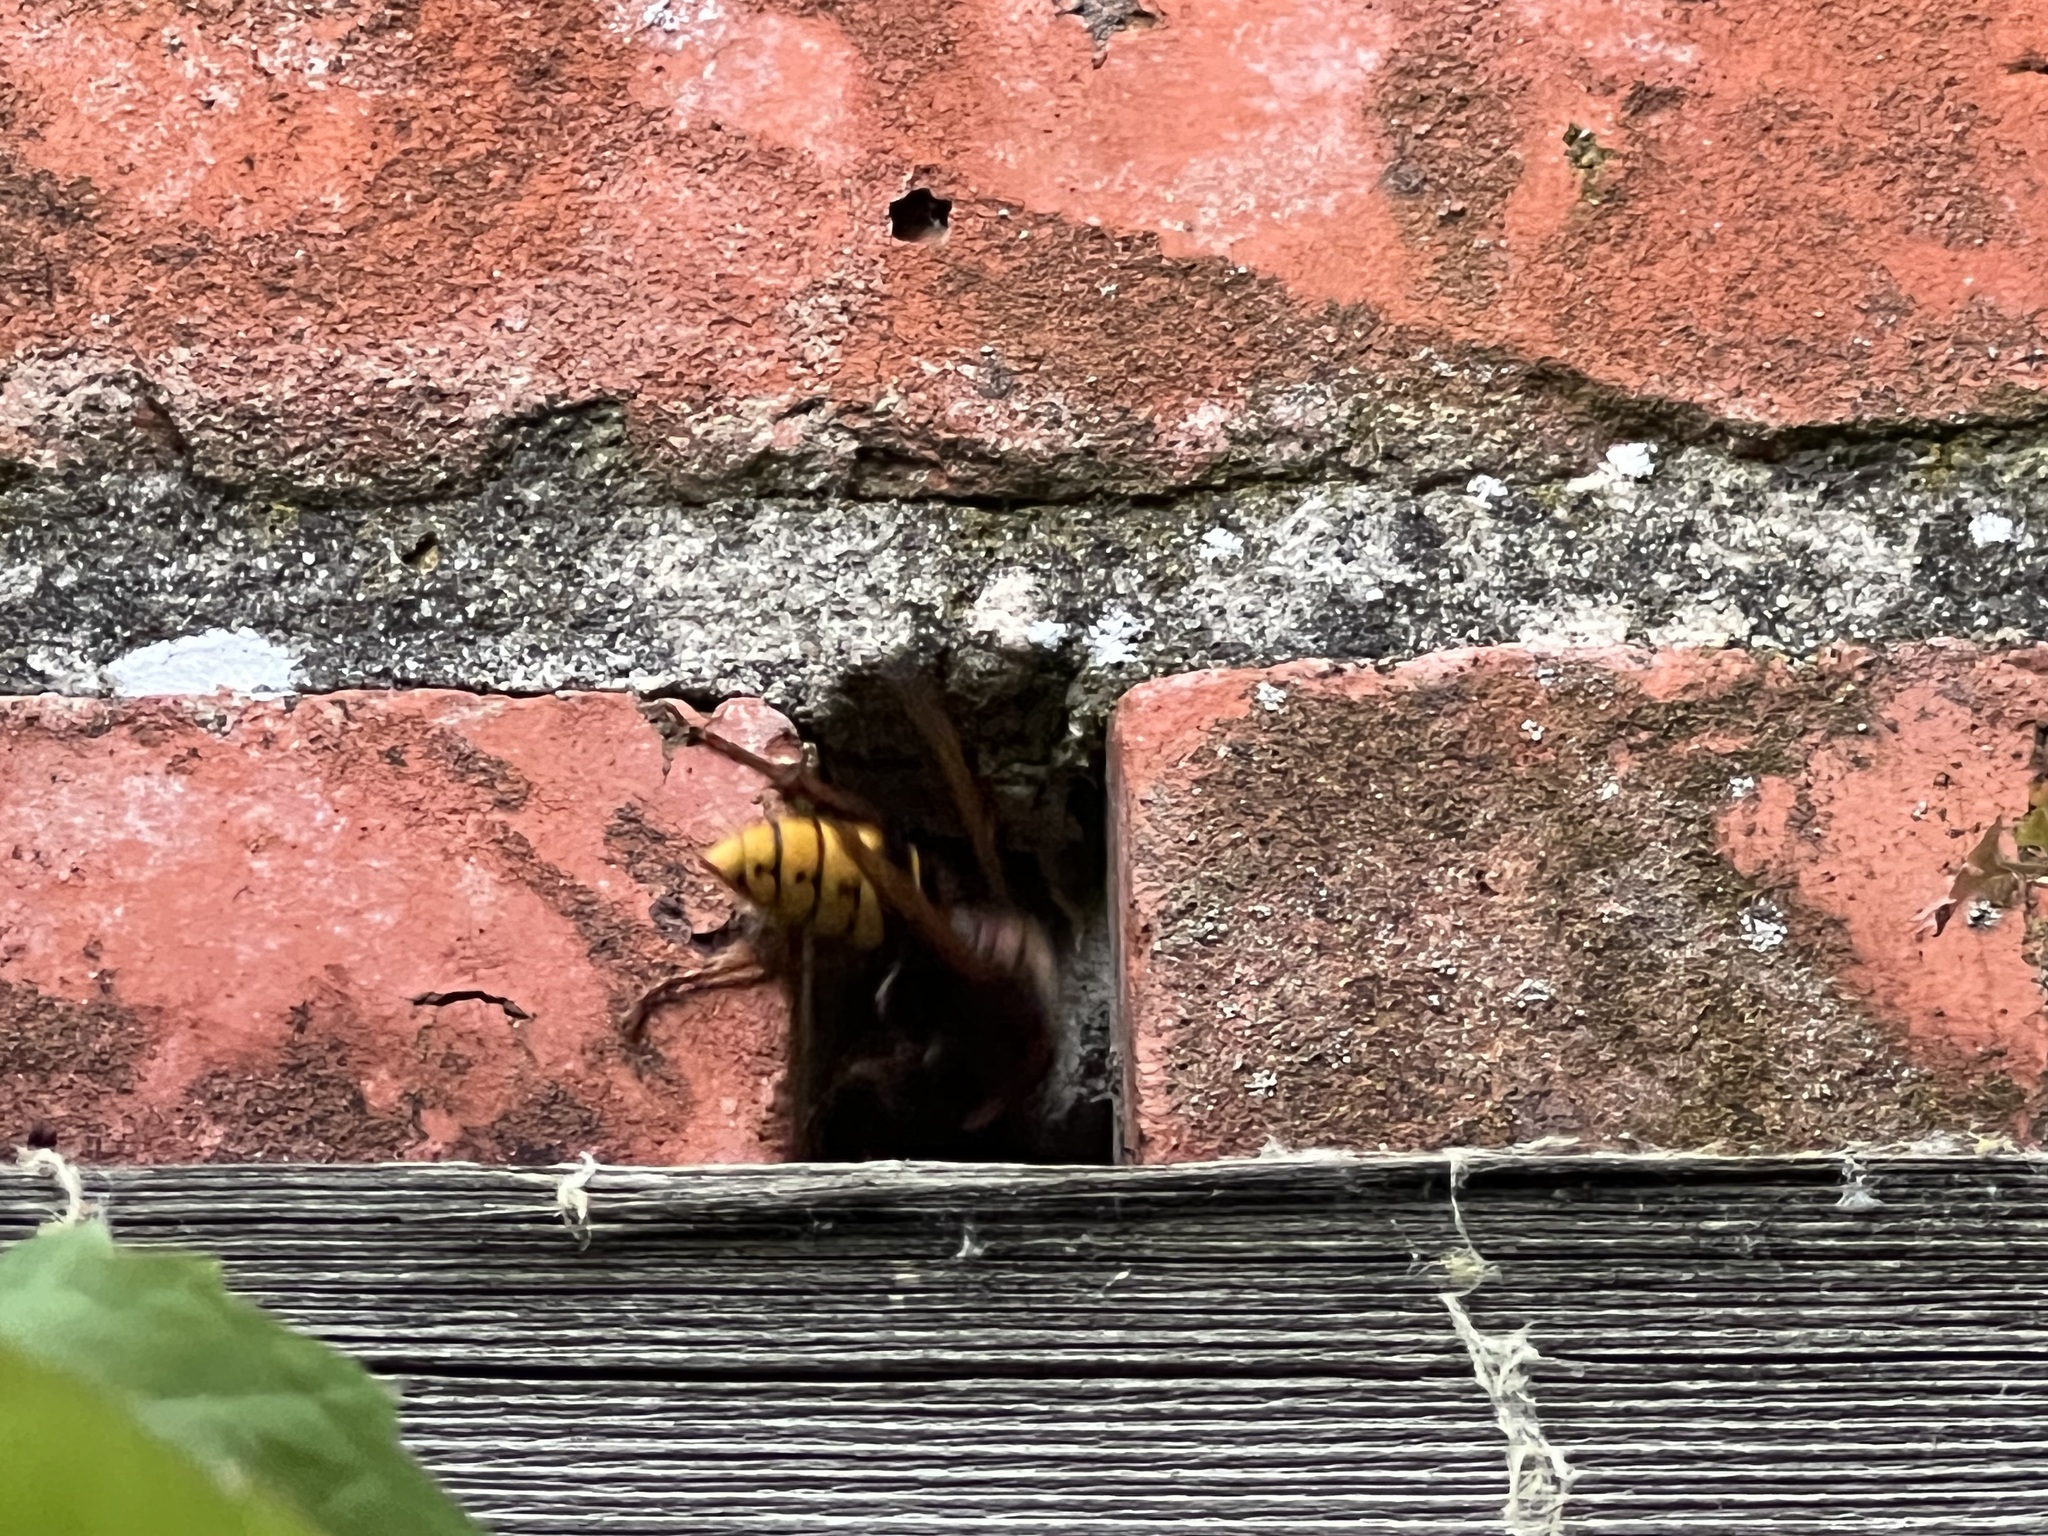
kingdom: Animalia
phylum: Arthropoda
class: Insecta
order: Hymenoptera
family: Vespidae
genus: Vespa
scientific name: Vespa crabro
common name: Hornet
